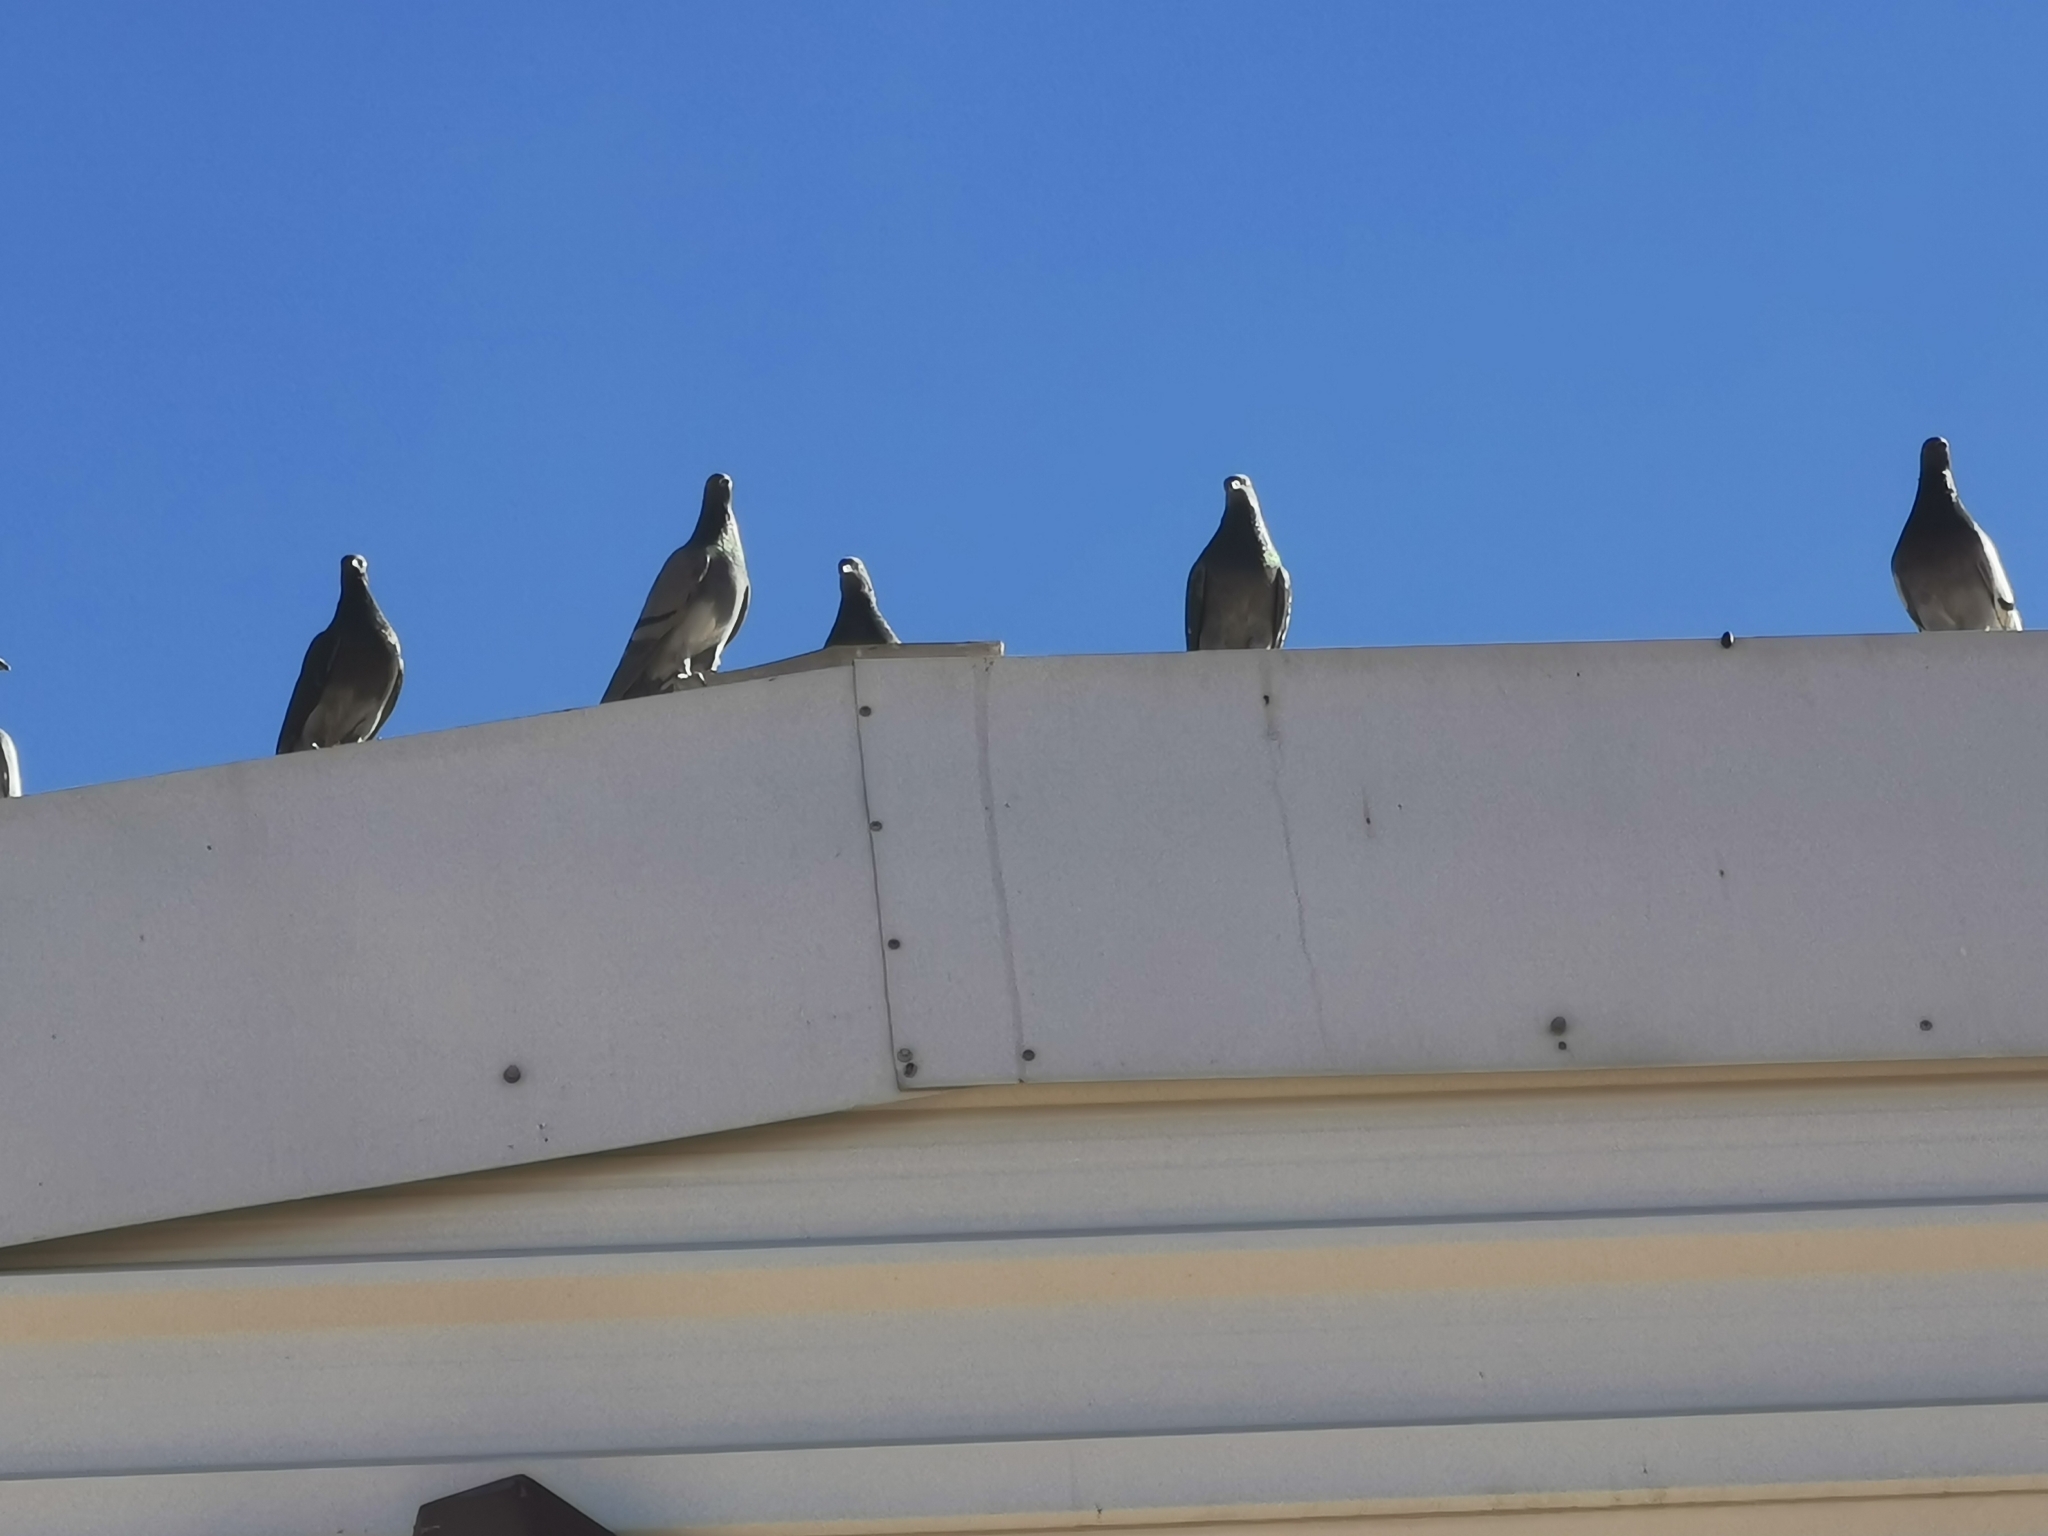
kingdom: Animalia
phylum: Chordata
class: Aves
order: Columbiformes
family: Columbidae
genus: Columba
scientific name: Columba livia
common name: Rock pigeon
